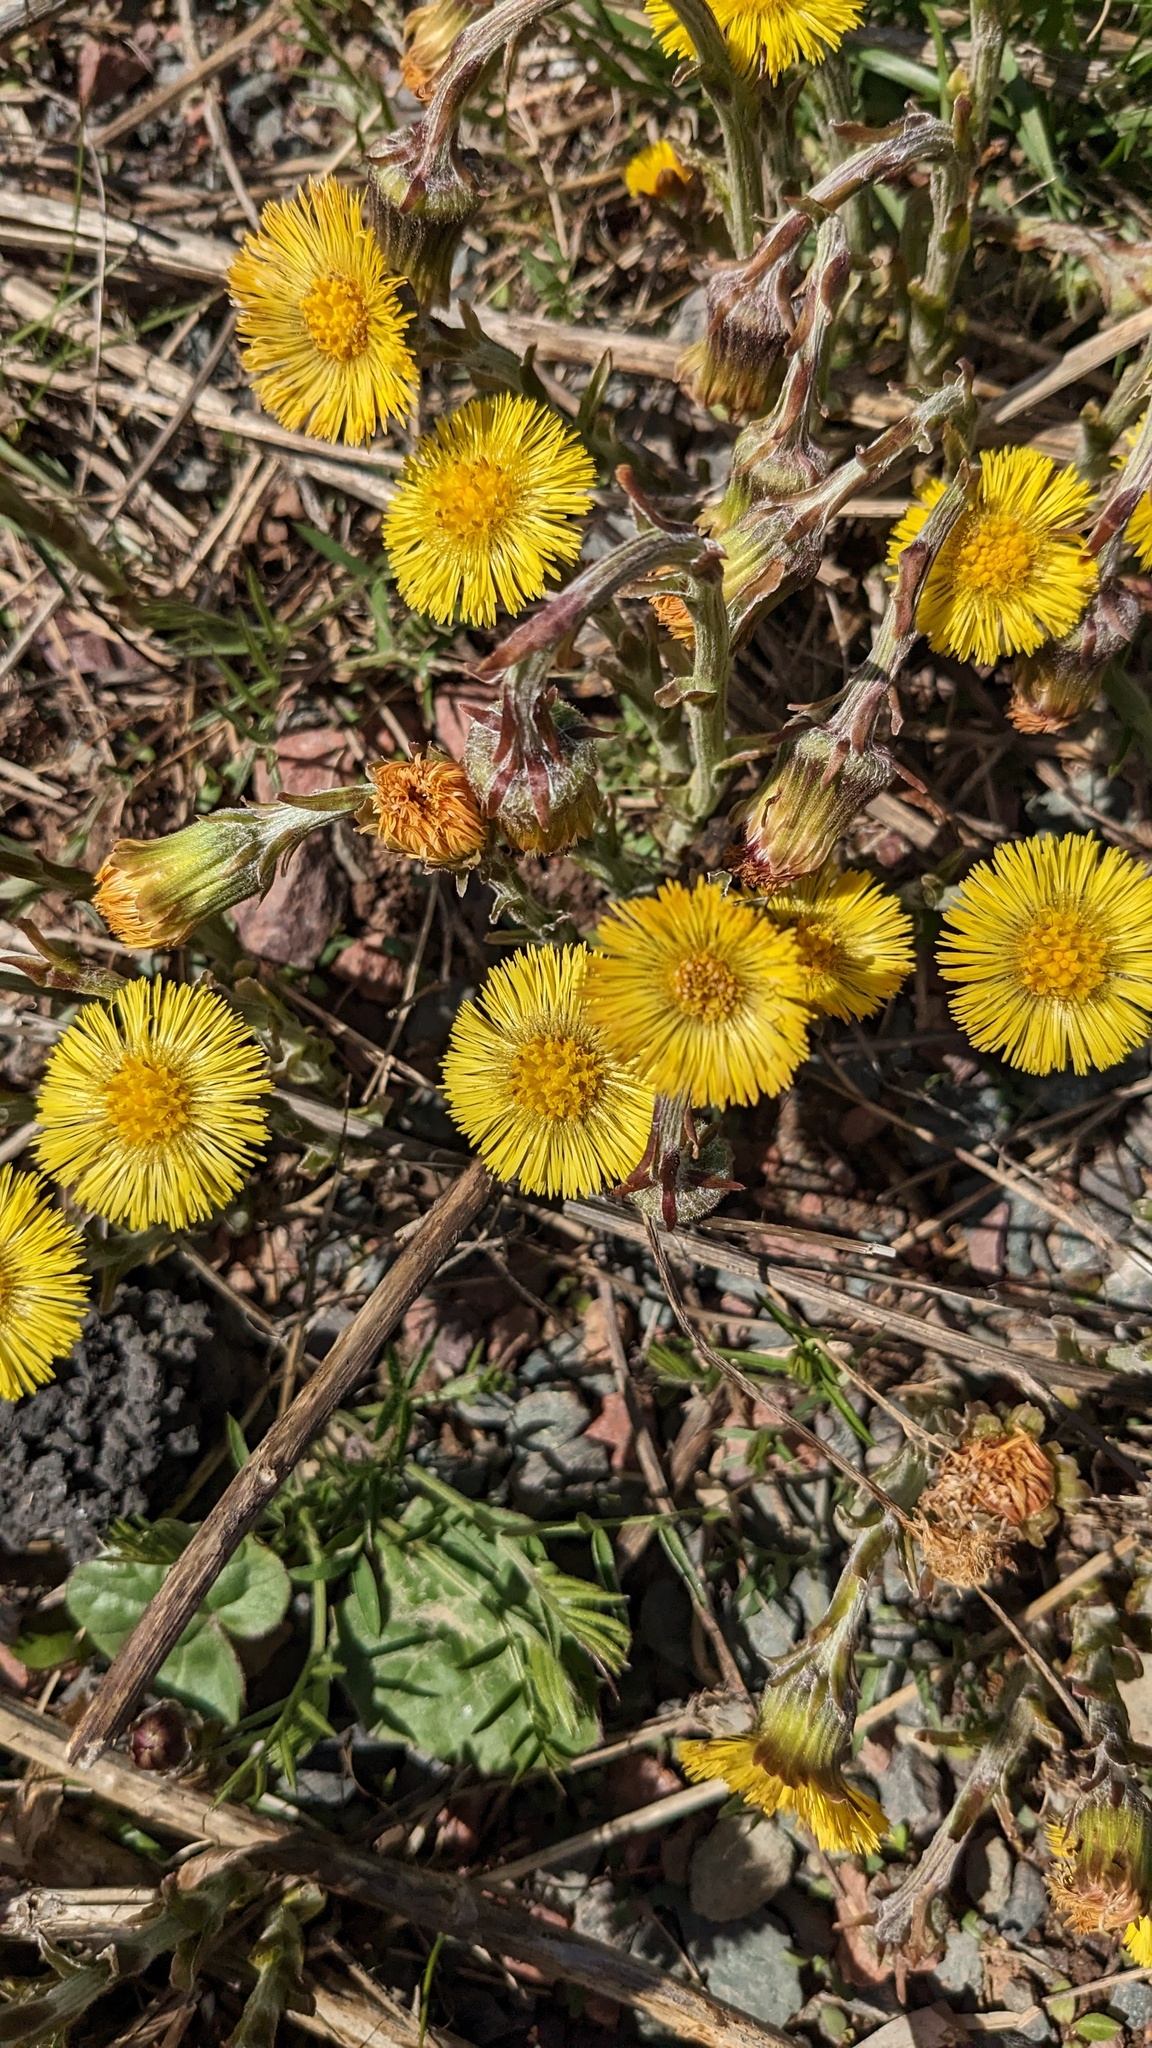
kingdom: Plantae
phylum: Tracheophyta
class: Magnoliopsida
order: Asterales
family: Asteraceae
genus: Tussilago
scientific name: Tussilago farfara
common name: Coltsfoot
